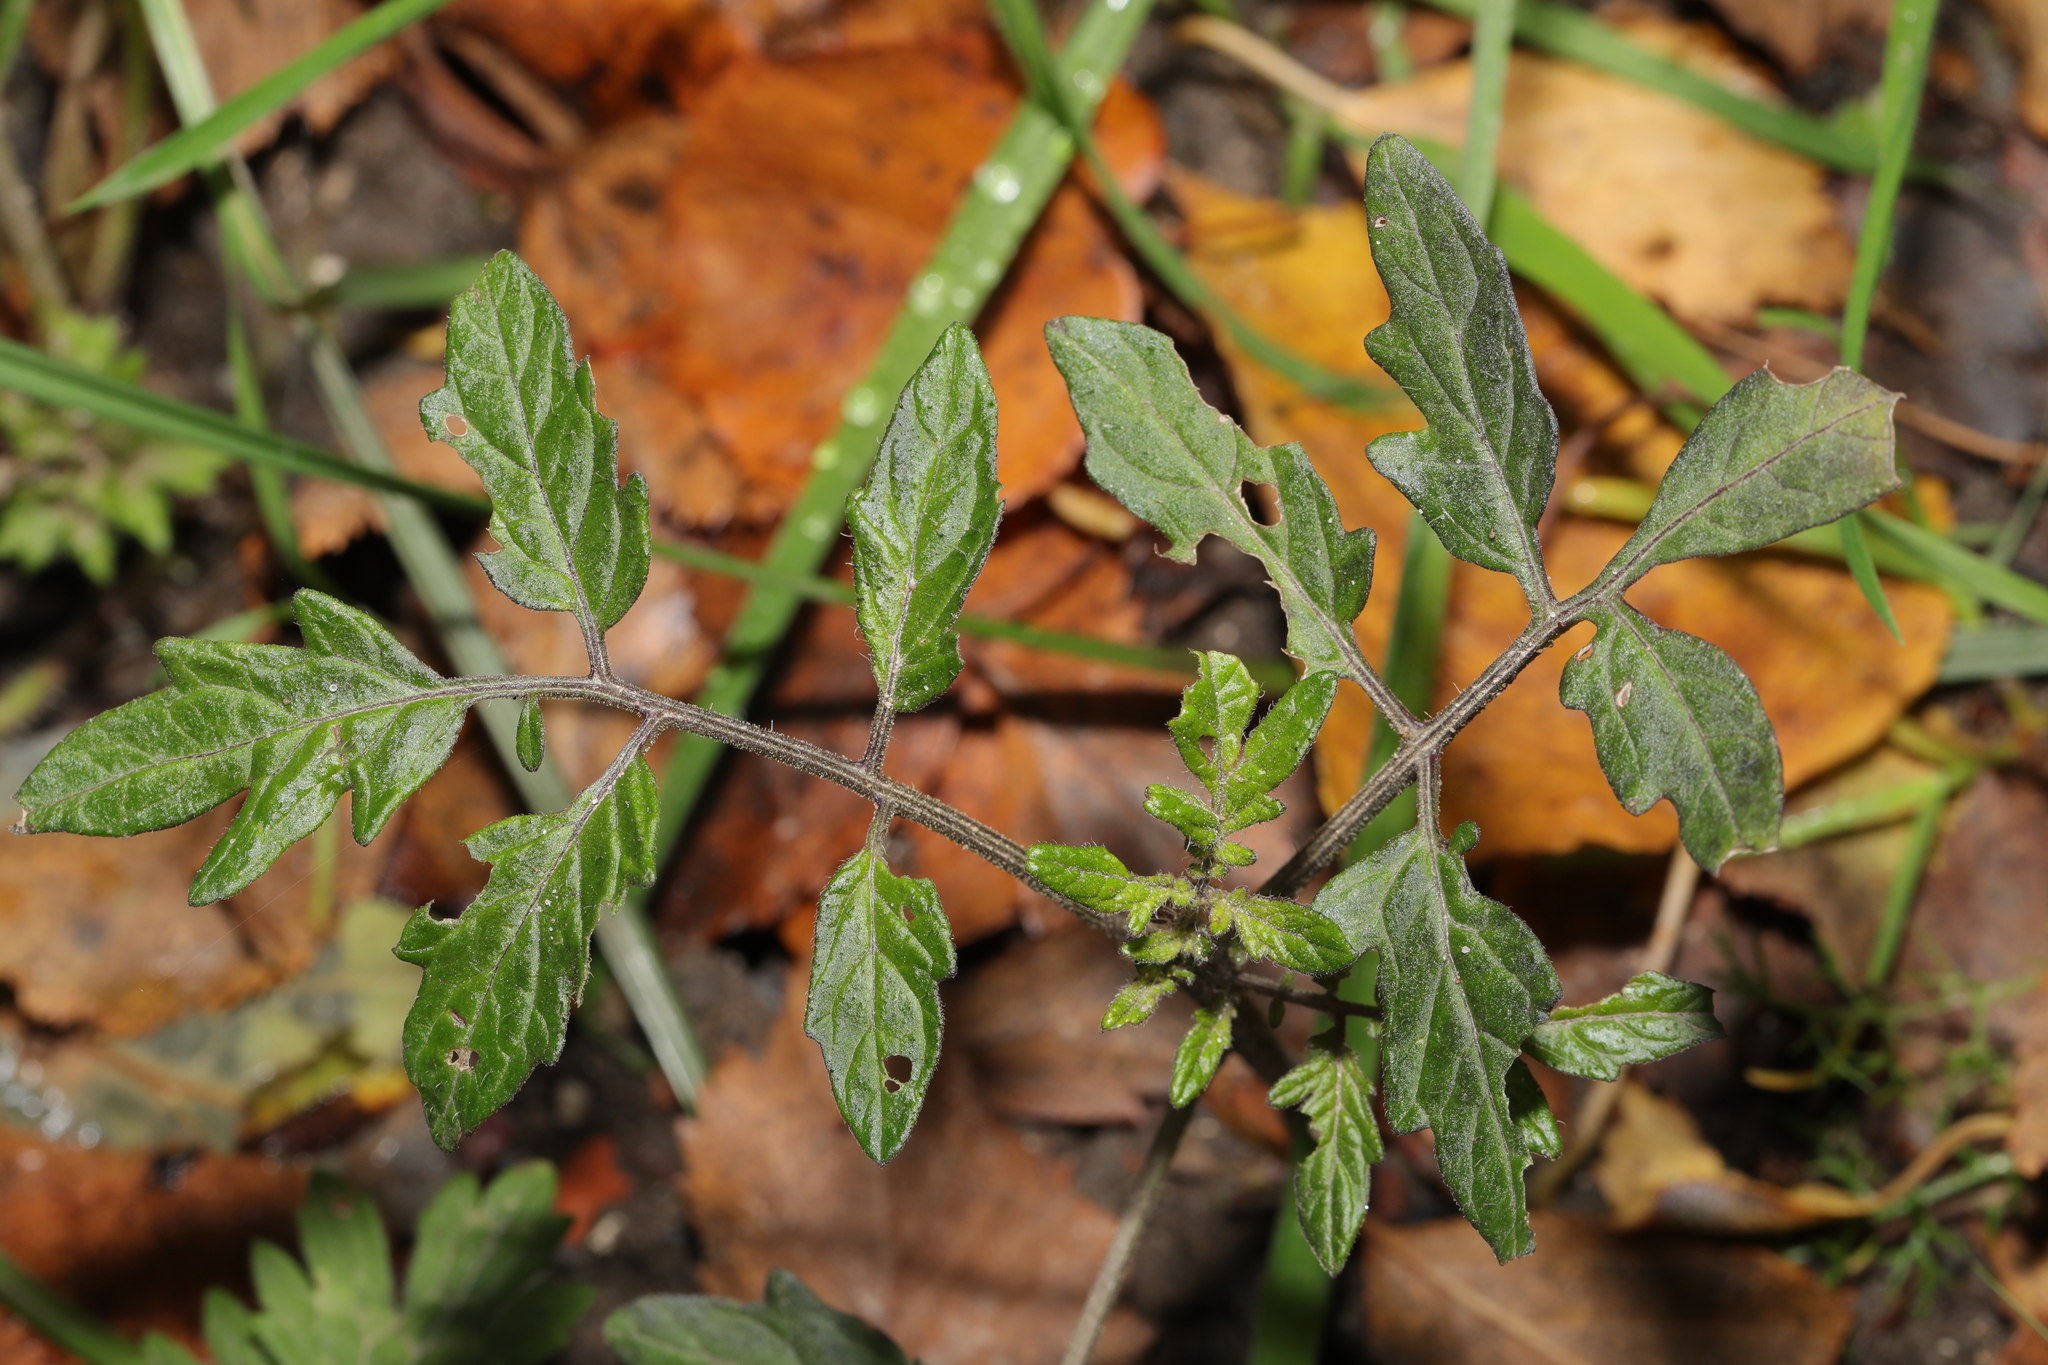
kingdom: Plantae
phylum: Tracheophyta
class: Magnoliopsida
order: Solanales
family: Solanaceae
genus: Solanum
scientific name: Solanum lycopersicum
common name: Garden tomato
